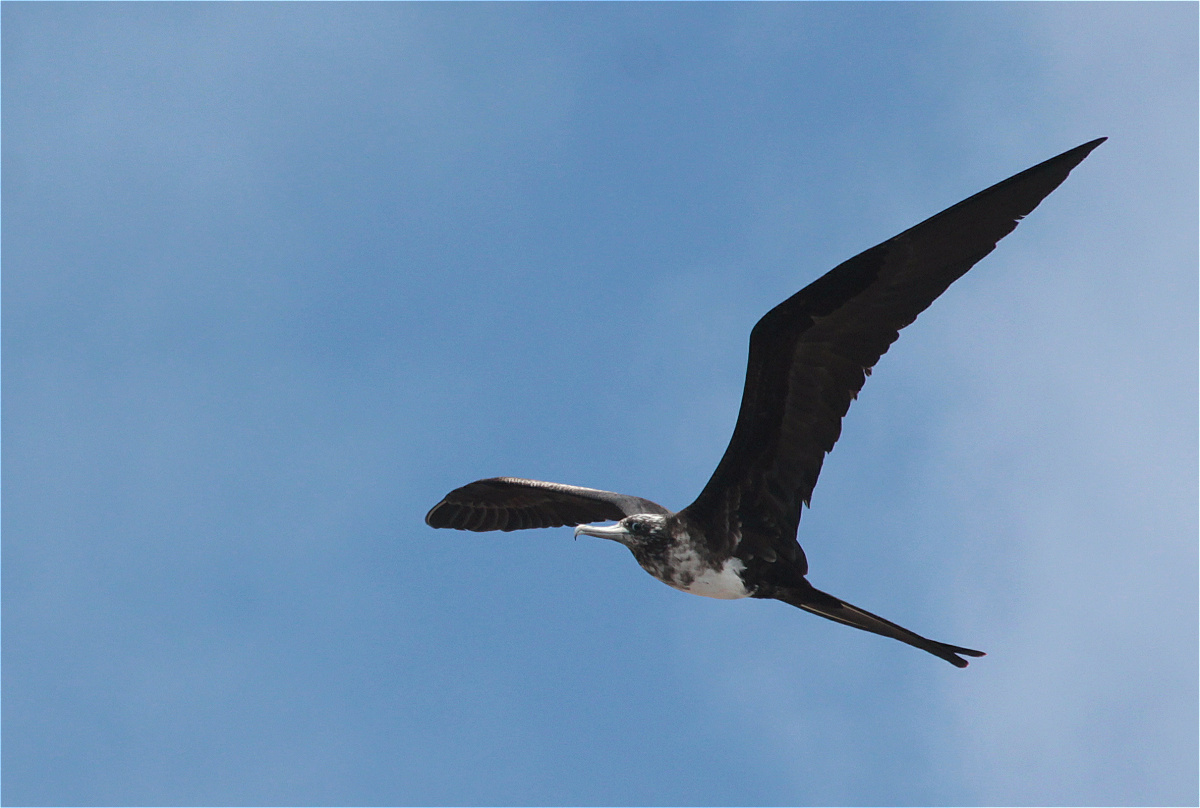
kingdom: Animalia
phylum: Chordata
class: Aves
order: Suliformes
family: Fregatidae
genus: Fregata
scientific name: Fregata magnificens
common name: Magnificent frigatebird
